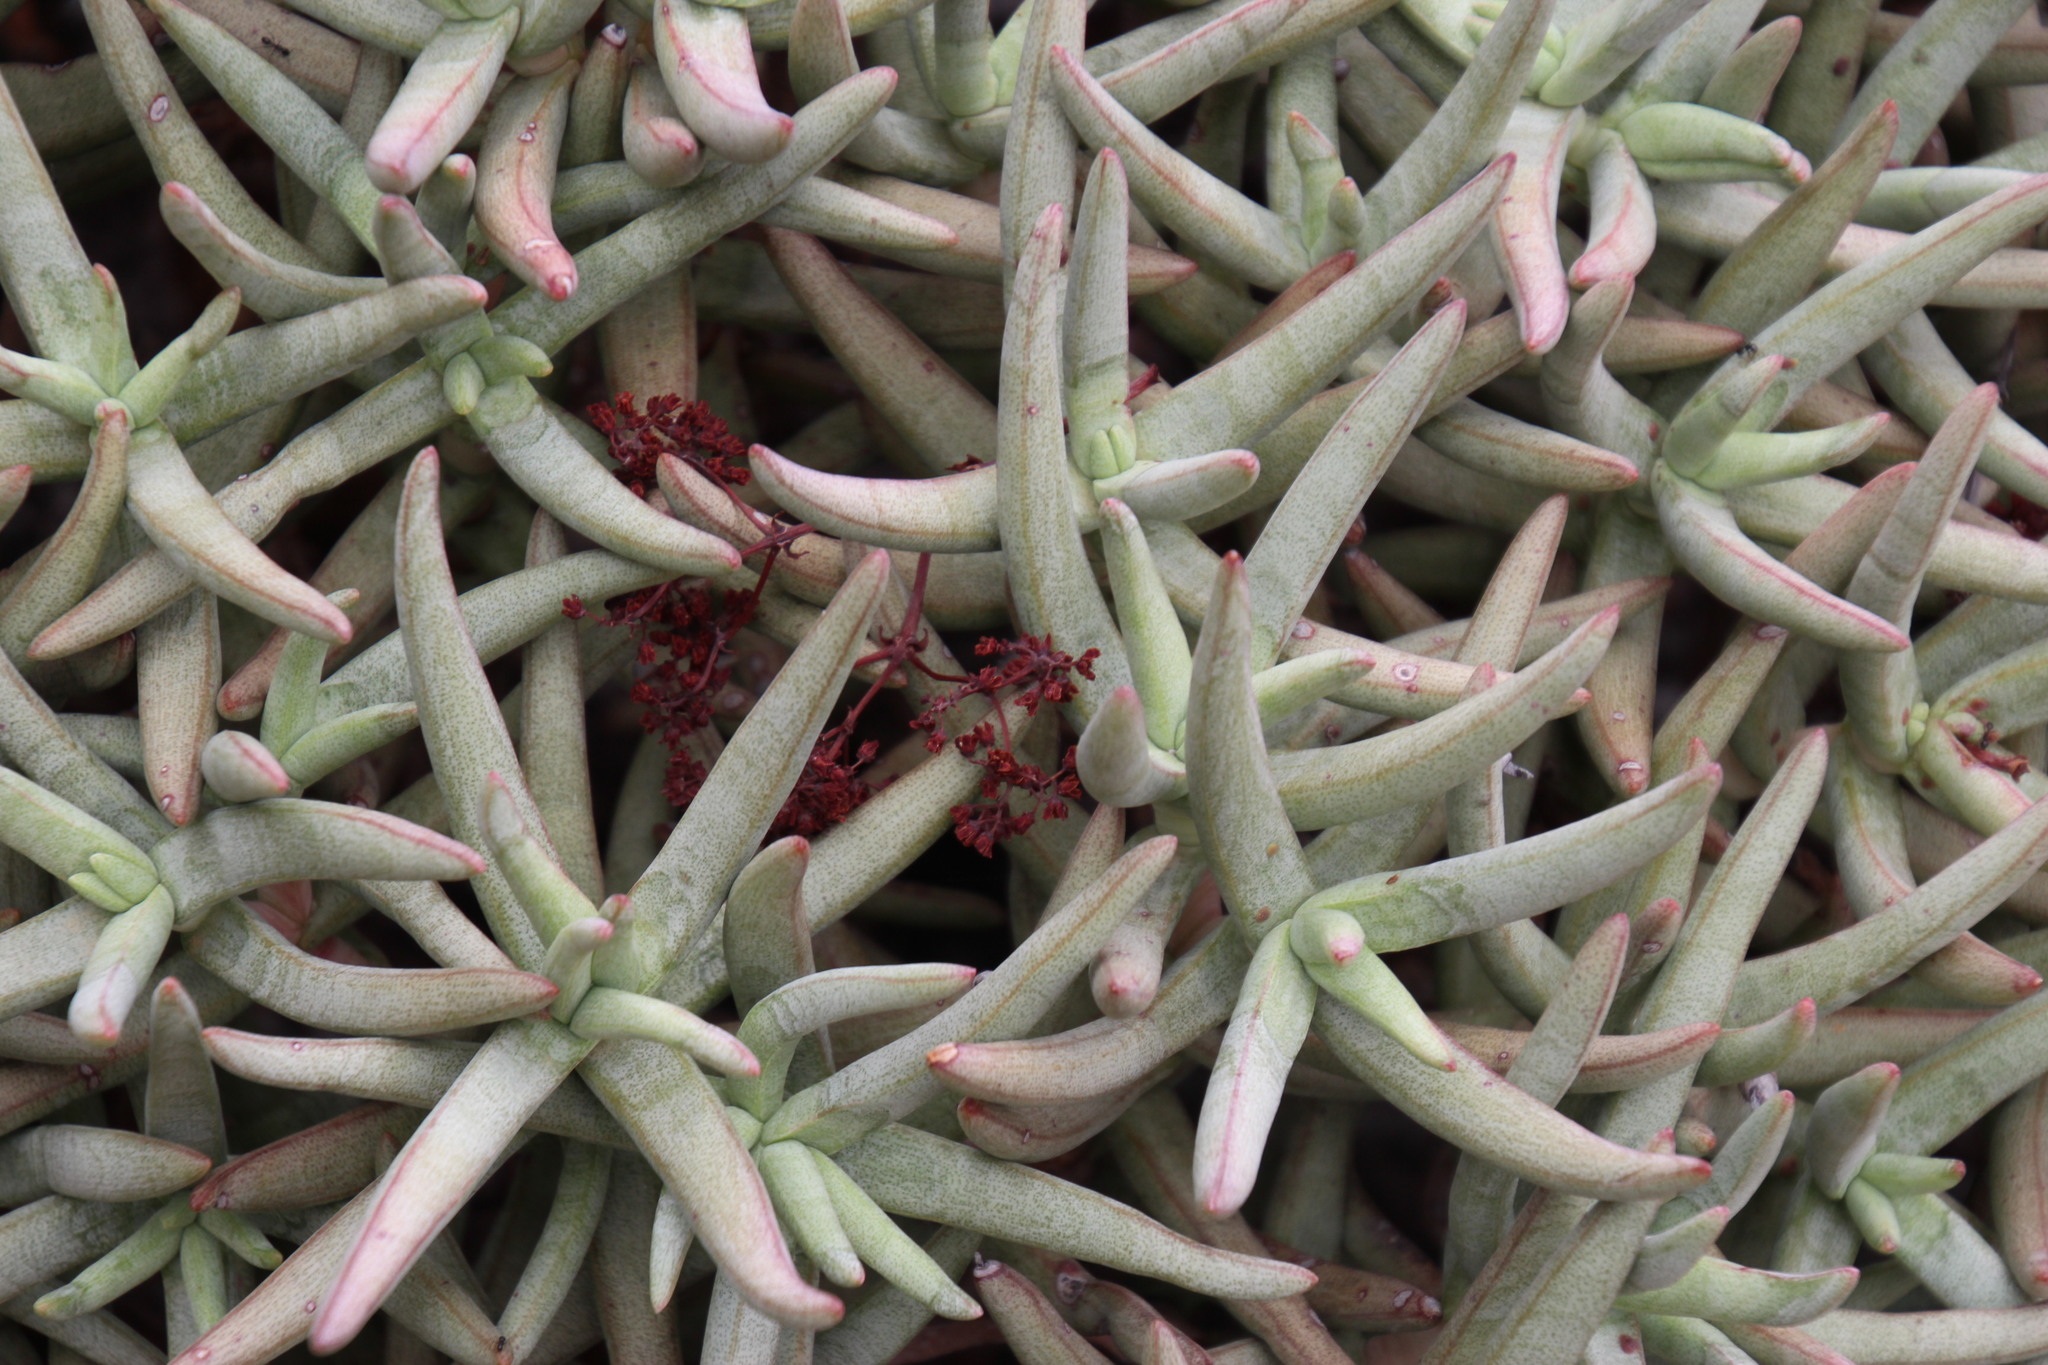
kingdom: Plantae
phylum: Tracheophyta
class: Magnoliopsida
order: Saxifragales
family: Crassulaceae
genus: Crassula
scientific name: Crassula macowaniana
